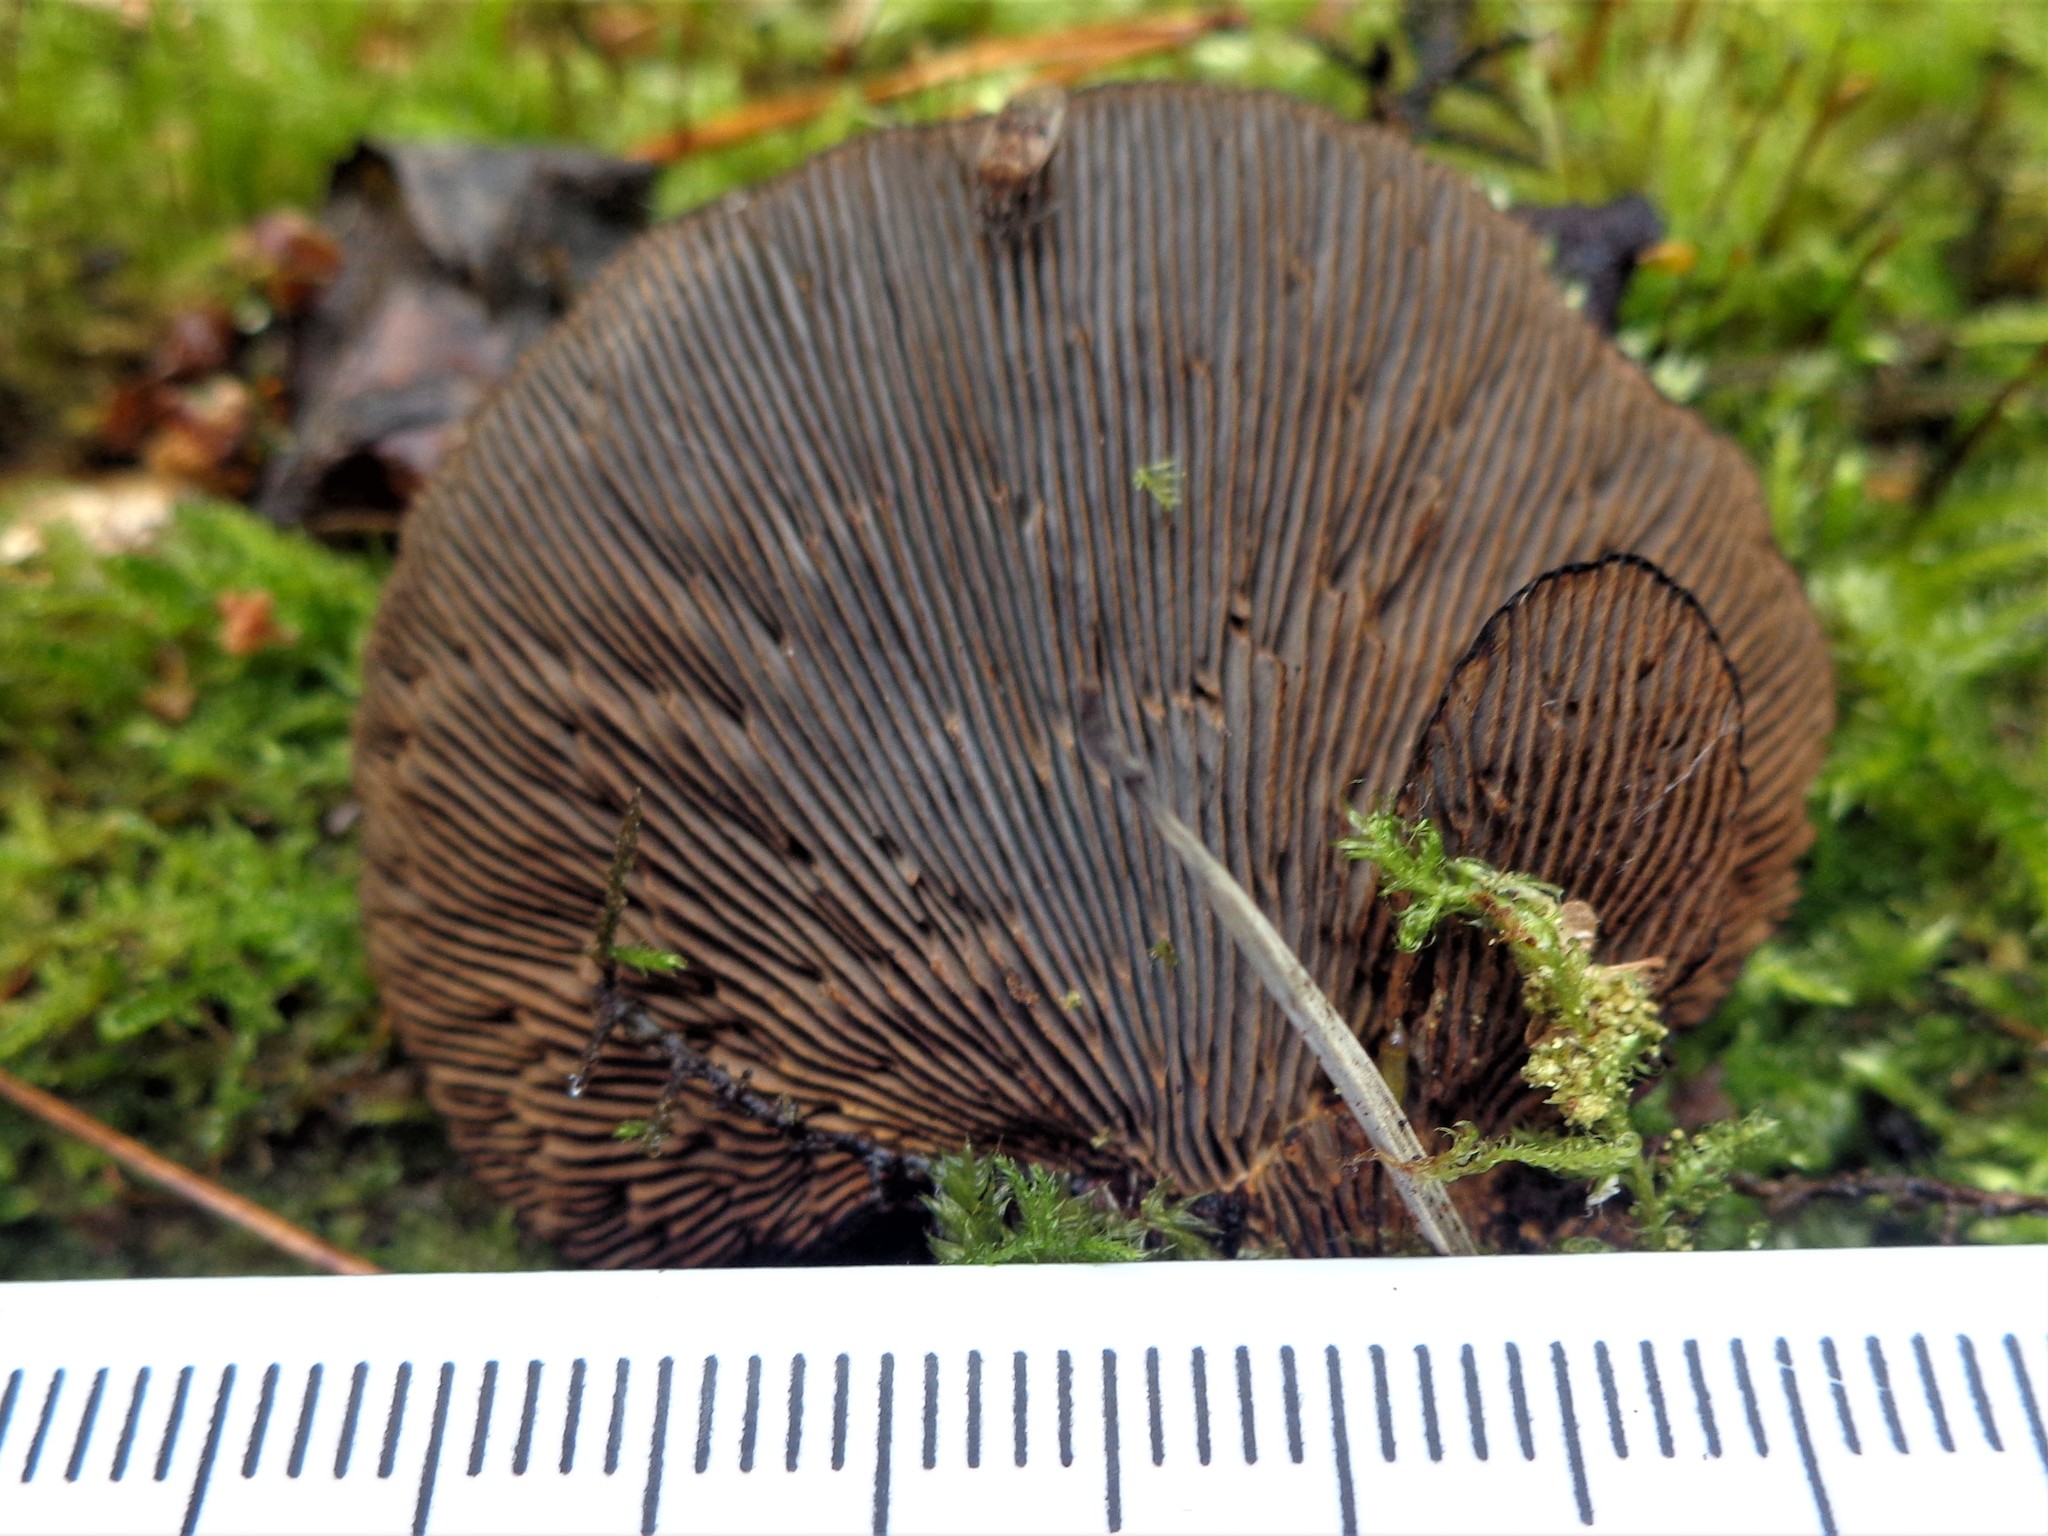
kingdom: Fungi
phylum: Basidiomycota
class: Agaricomycetes
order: Polyporales
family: Polyporaceae
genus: Daedaleopsis
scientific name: Daedaleopsis tricolor
